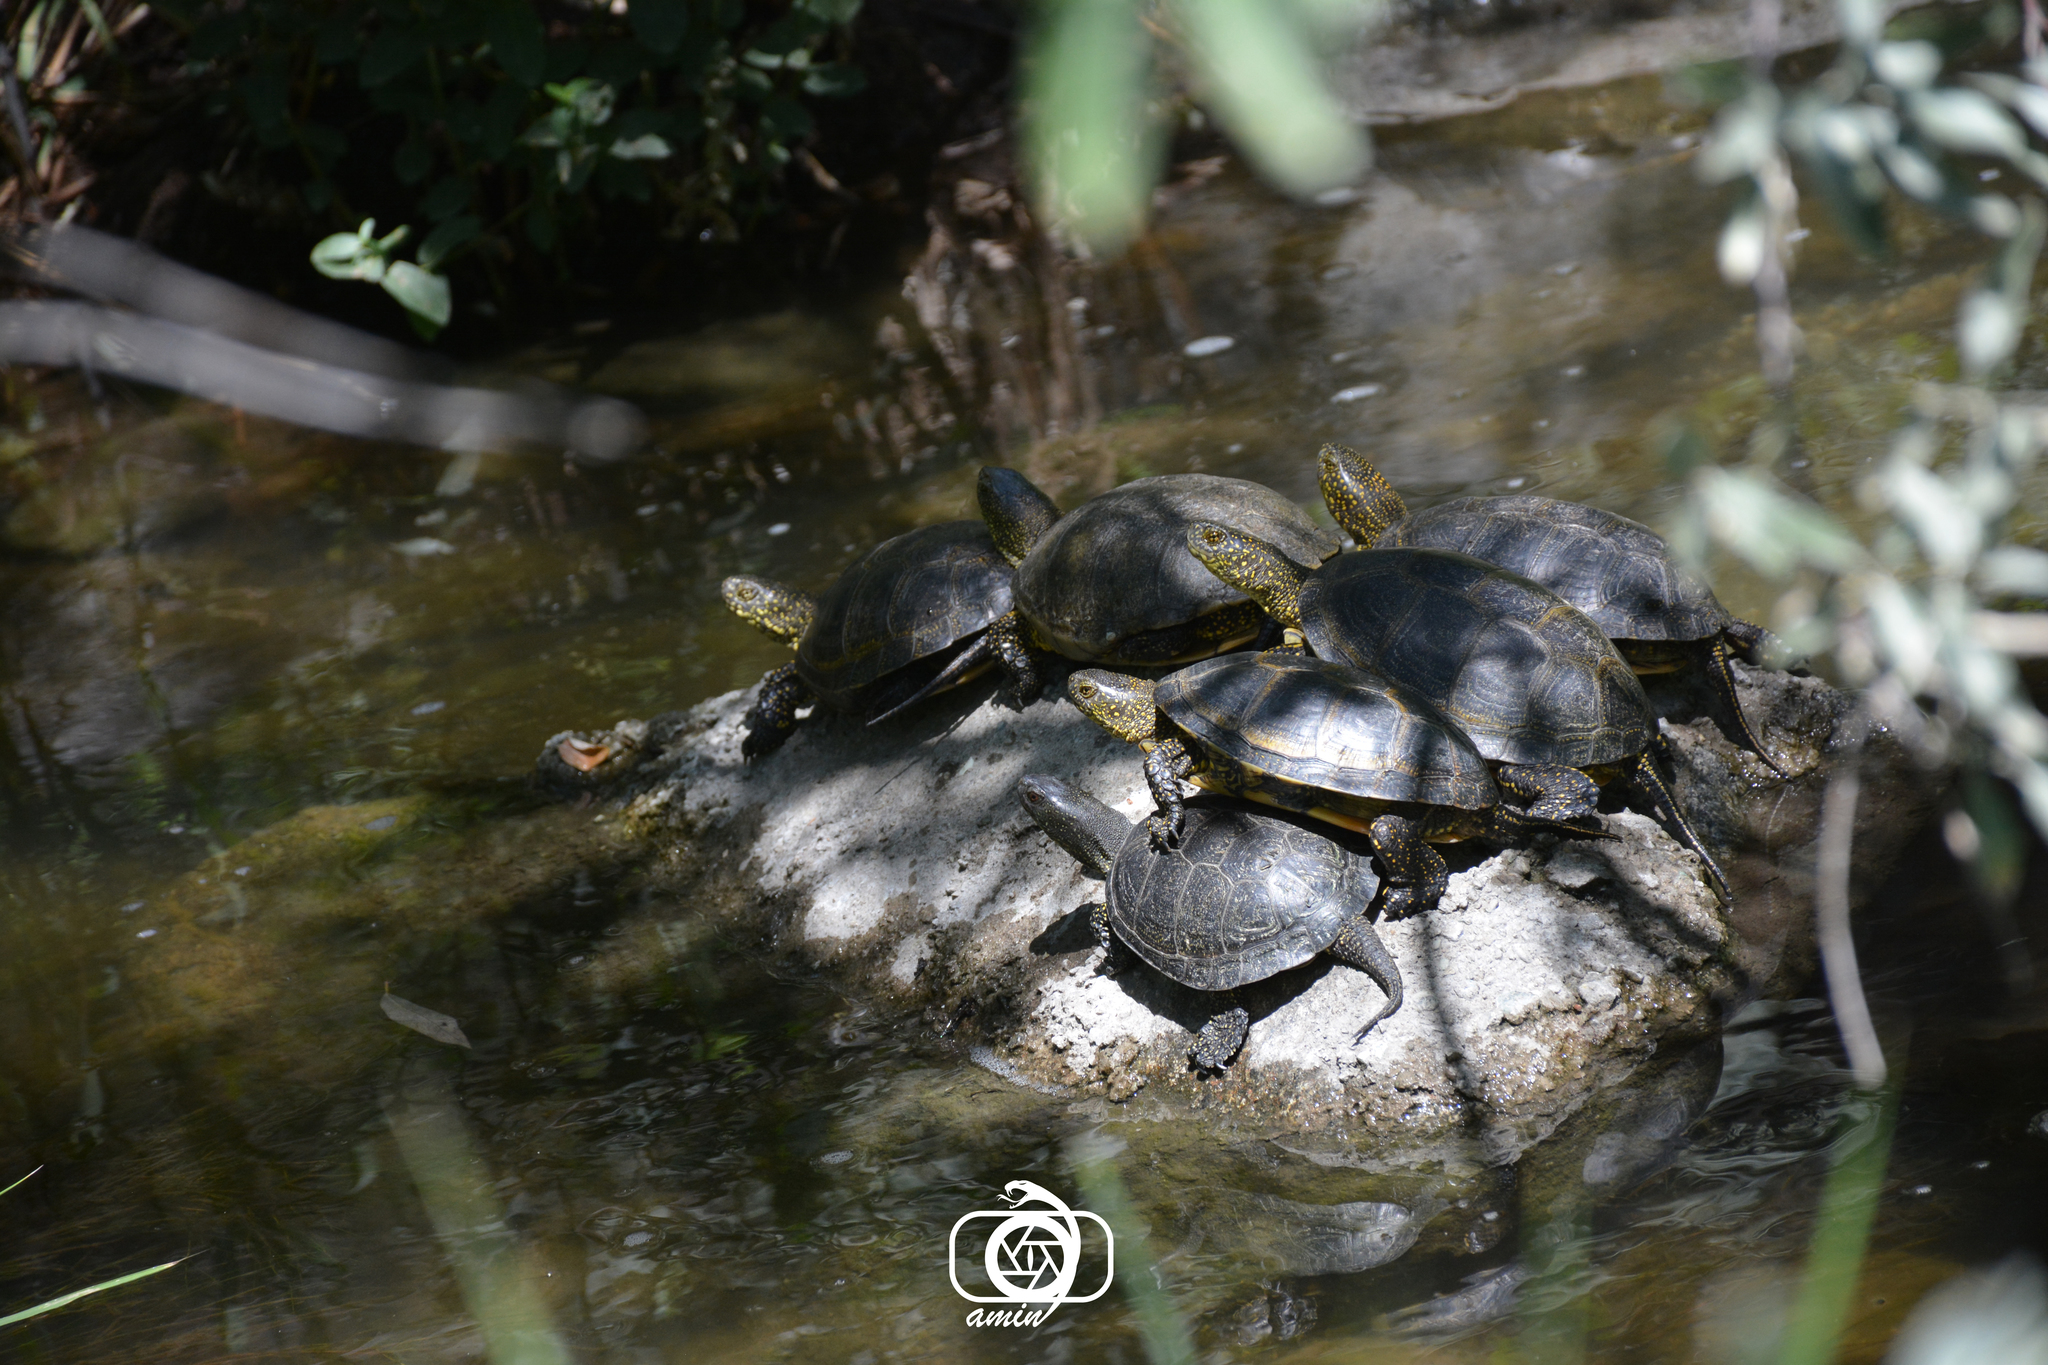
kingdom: Animalia
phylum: Chordata
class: Testudines
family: Emydidae
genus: Emys
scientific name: Emys orbicularis
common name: European pond turtle
